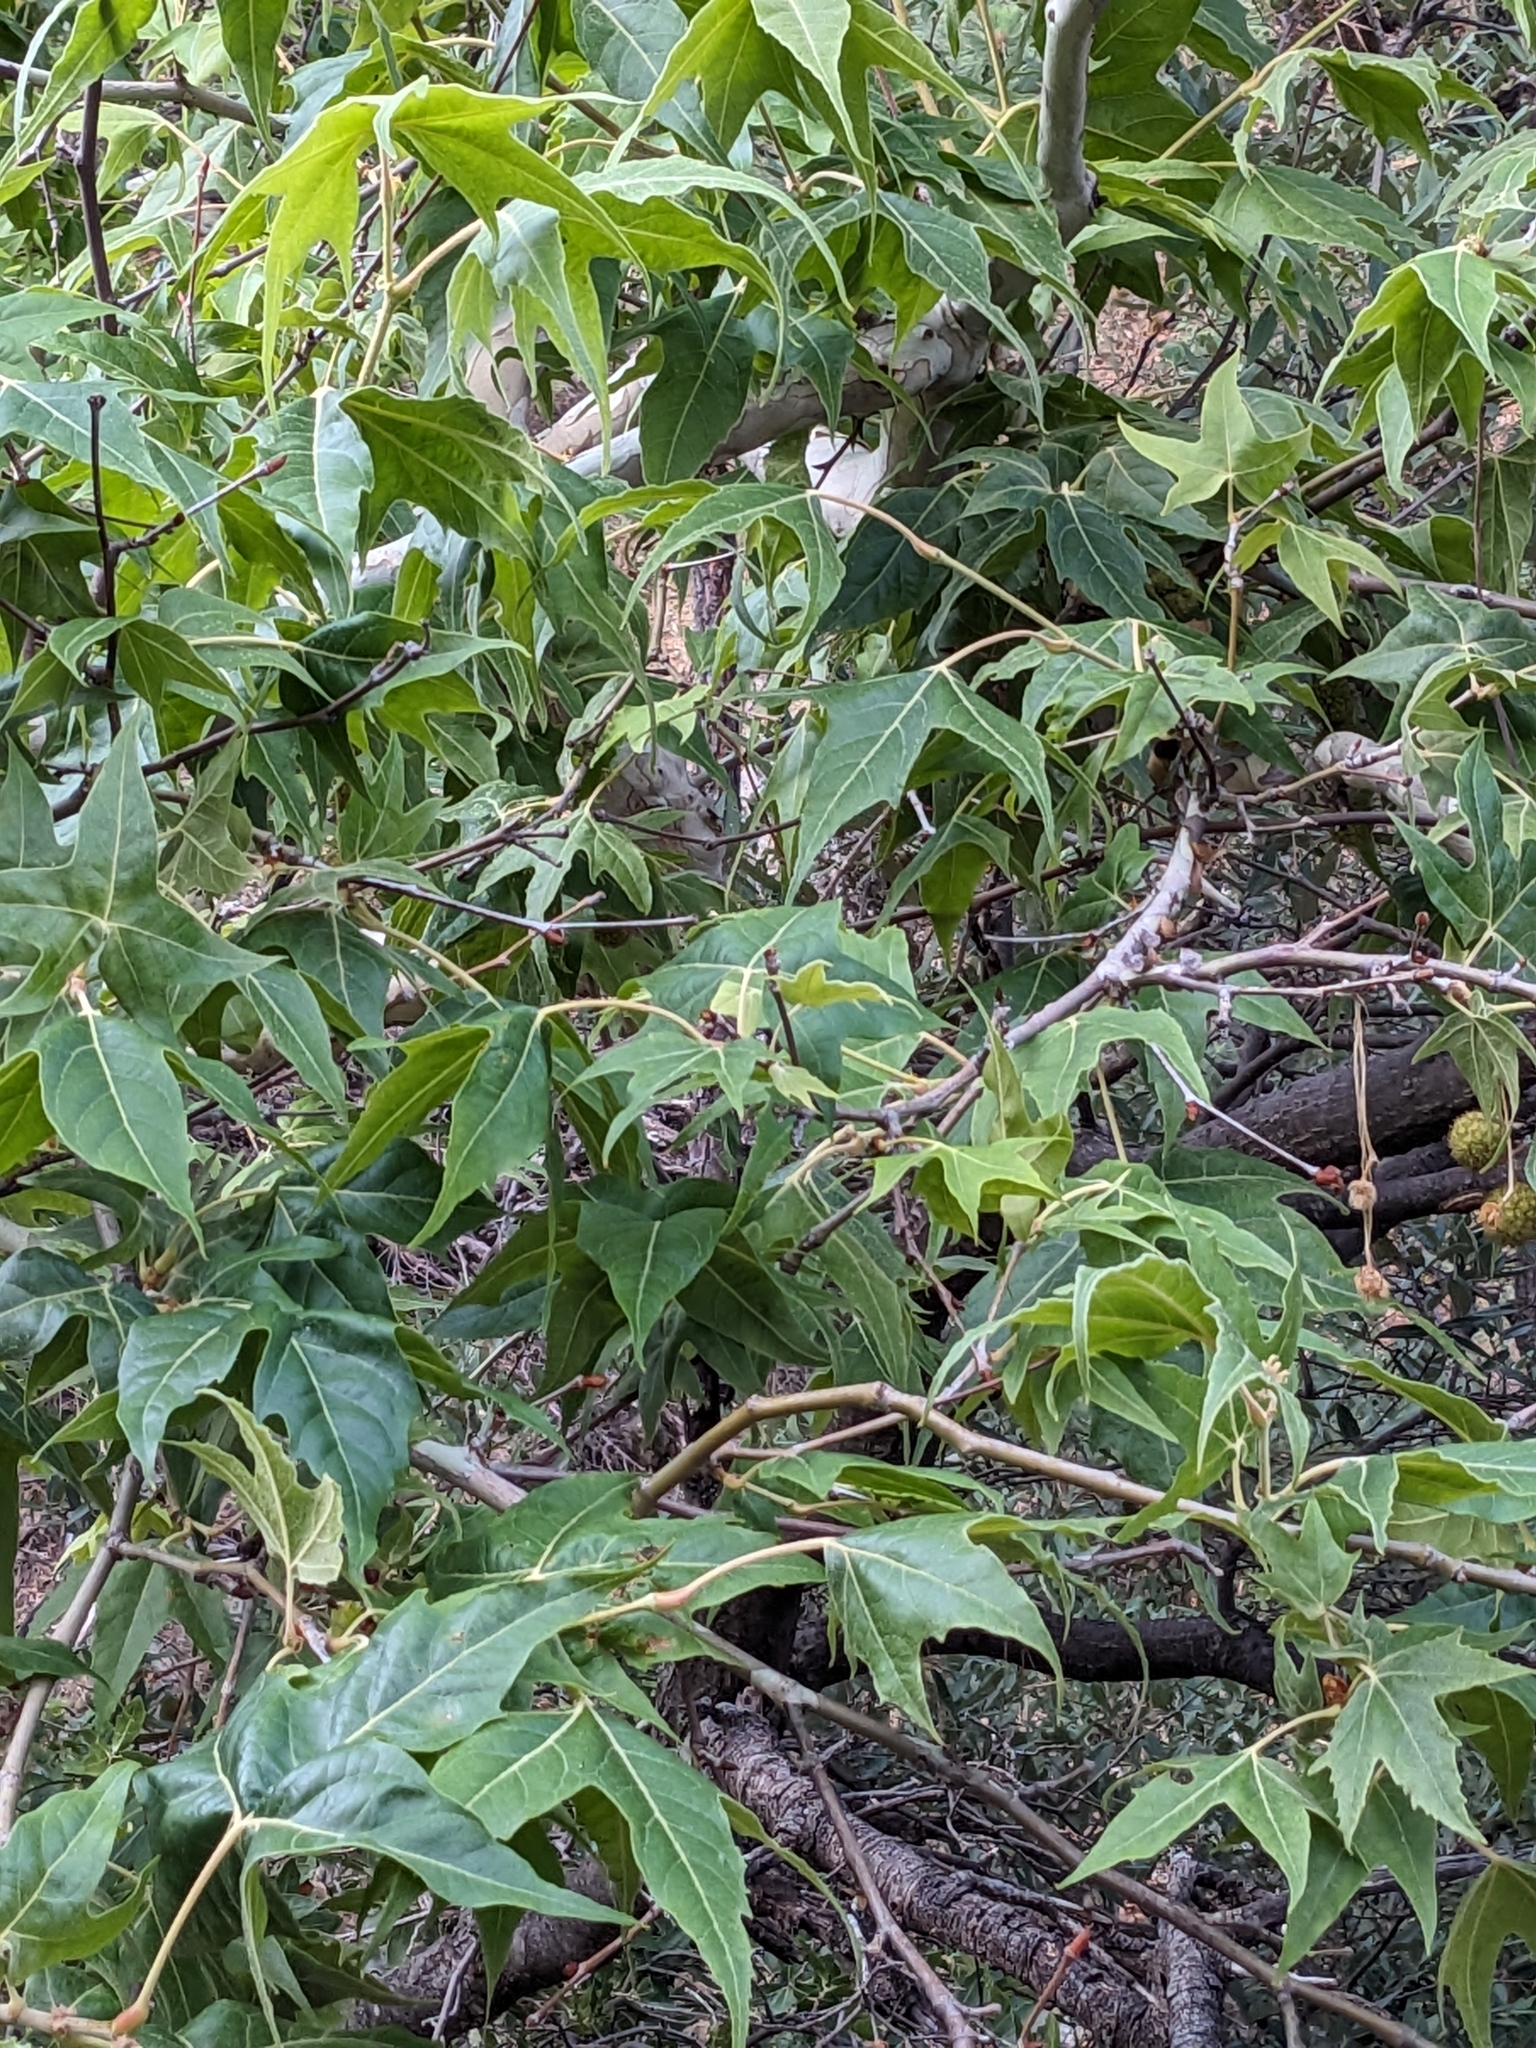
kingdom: Plantae
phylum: Tracheophyta
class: Magnoliopsida
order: Proteales
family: Platanaceae
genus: Platanus
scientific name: Platanus wrightii
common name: Arizona sycamore
